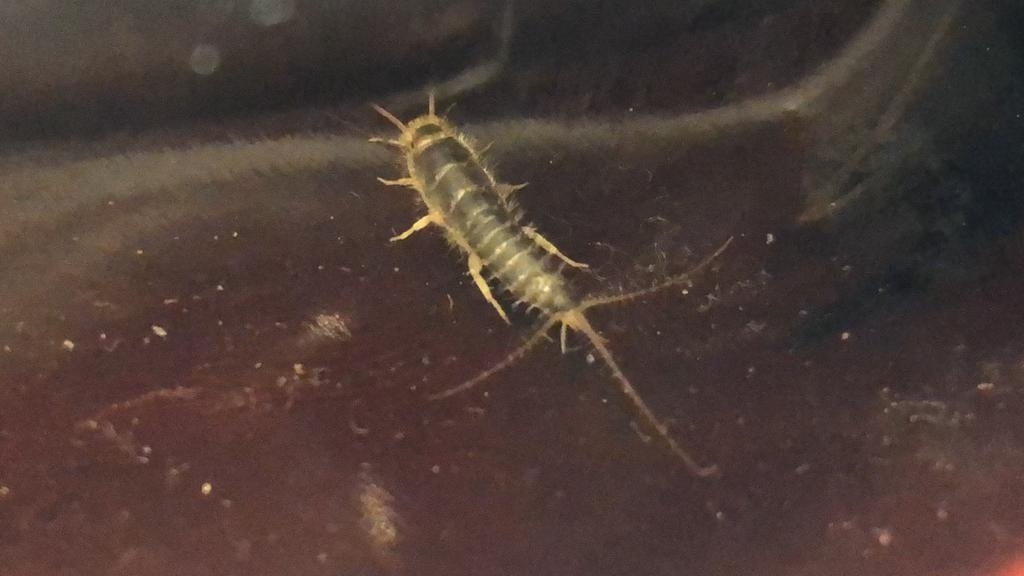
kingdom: Animalia
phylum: Arthropoda
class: Insecta
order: Zygentoma
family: Lepismatidae
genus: Ctenolepisma
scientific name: Ctenolepisma longicaudatum
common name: Silverfish
